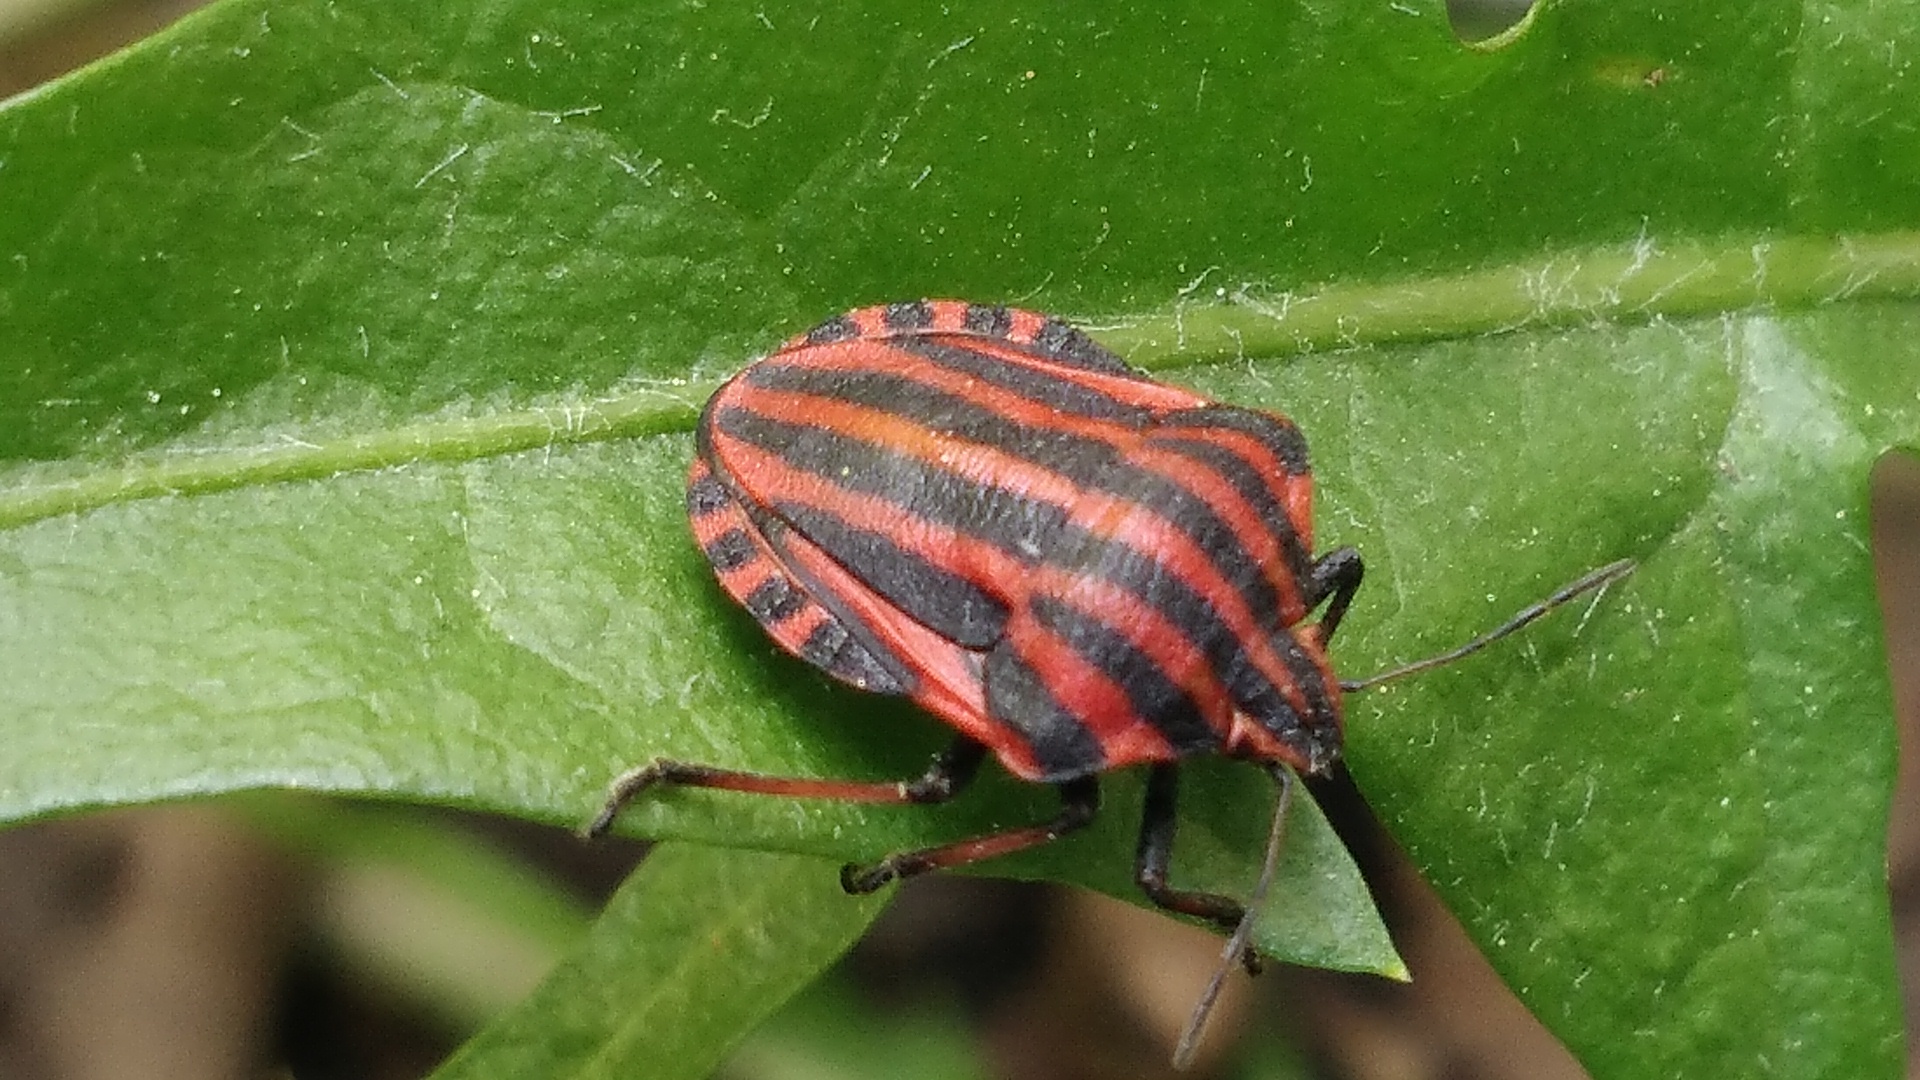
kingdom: Animalia
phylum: Arthropoda
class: Insecta
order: Hemiptera
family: Pentatomidae
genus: Graphosoma
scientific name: Graphosoma italicum
